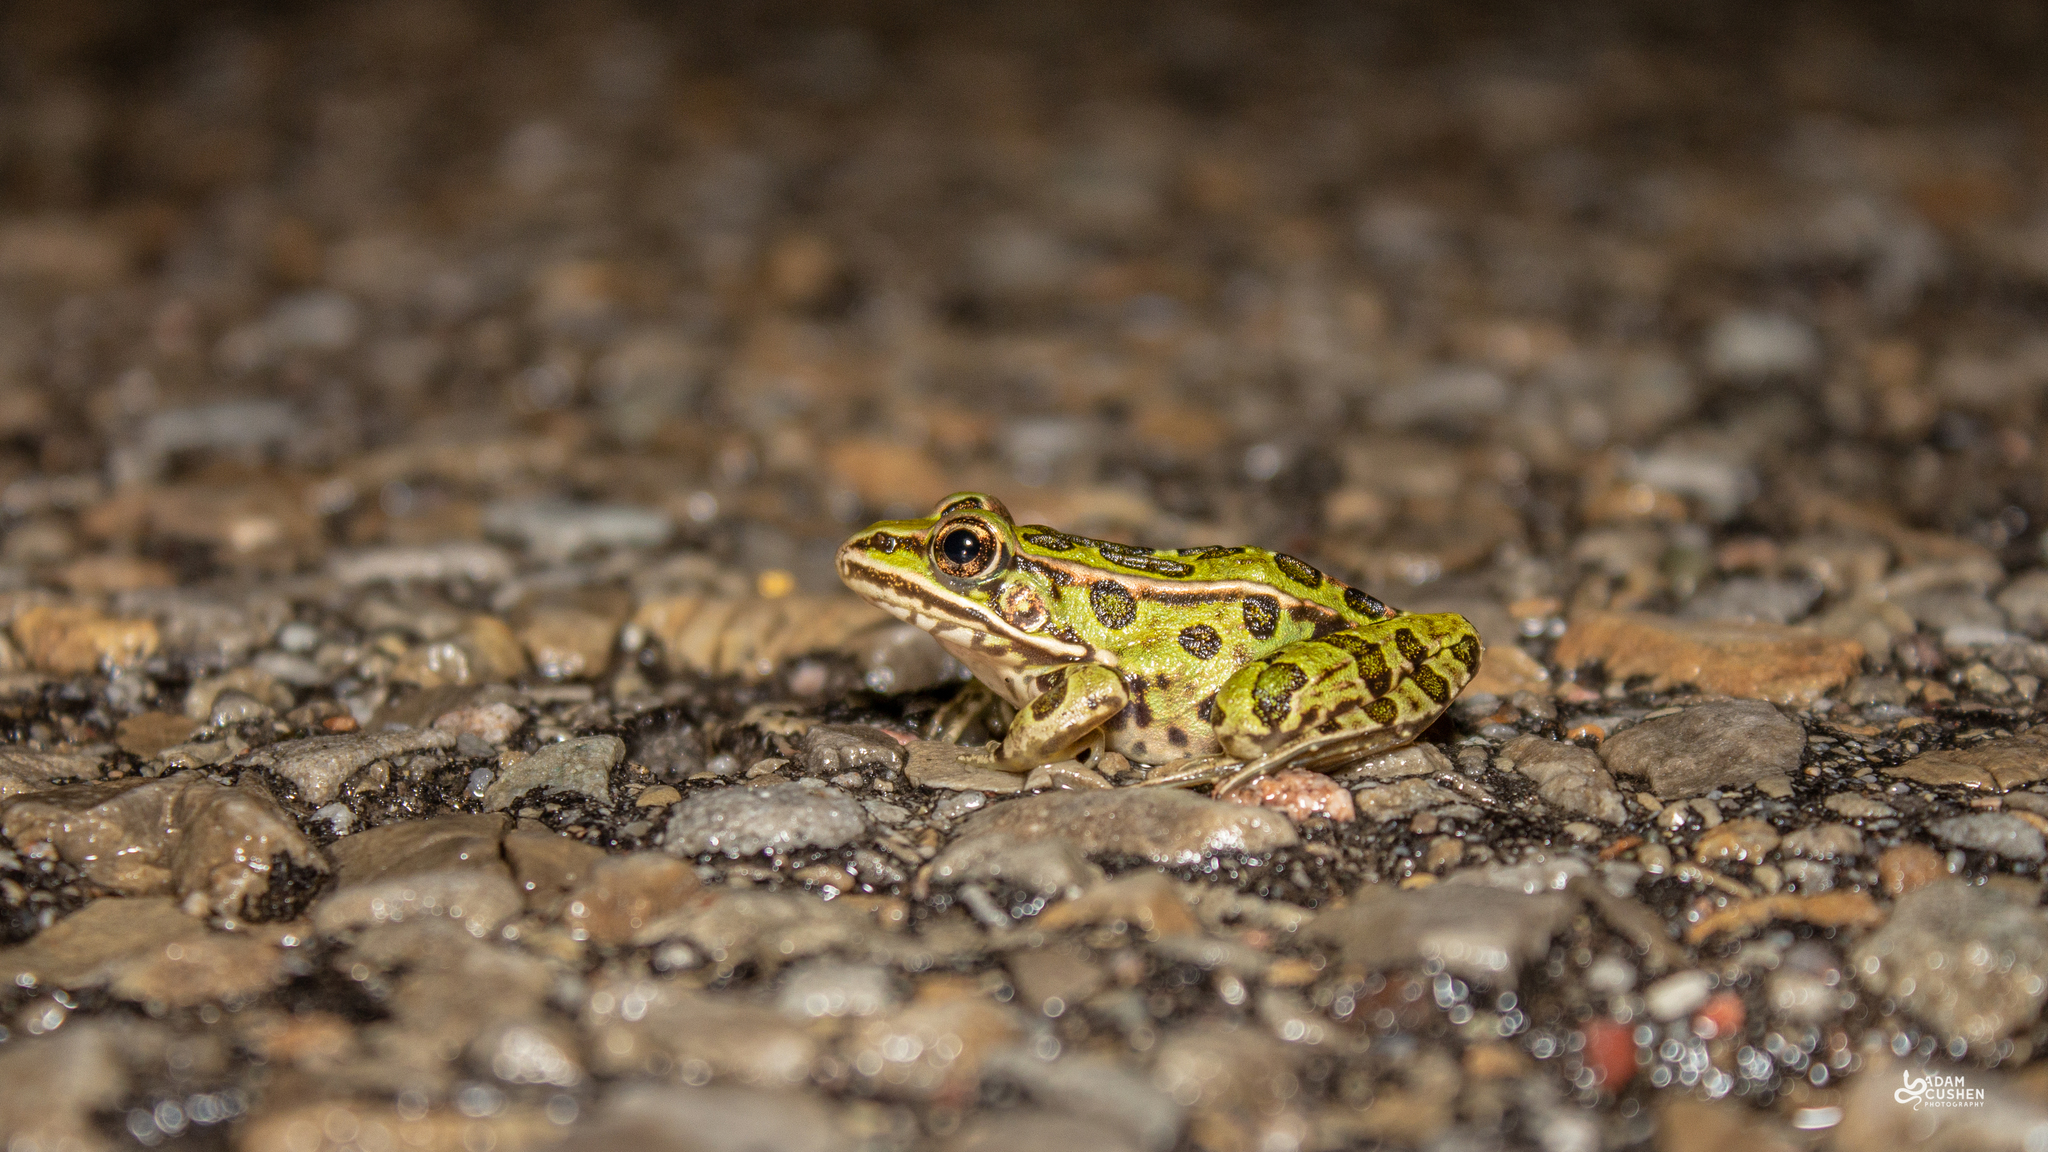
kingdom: Animalia
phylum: Chordata
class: Amphibia
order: Anura
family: Ranidae
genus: Lithobates
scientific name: Lithobates pipiens
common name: Northern leopard frog
